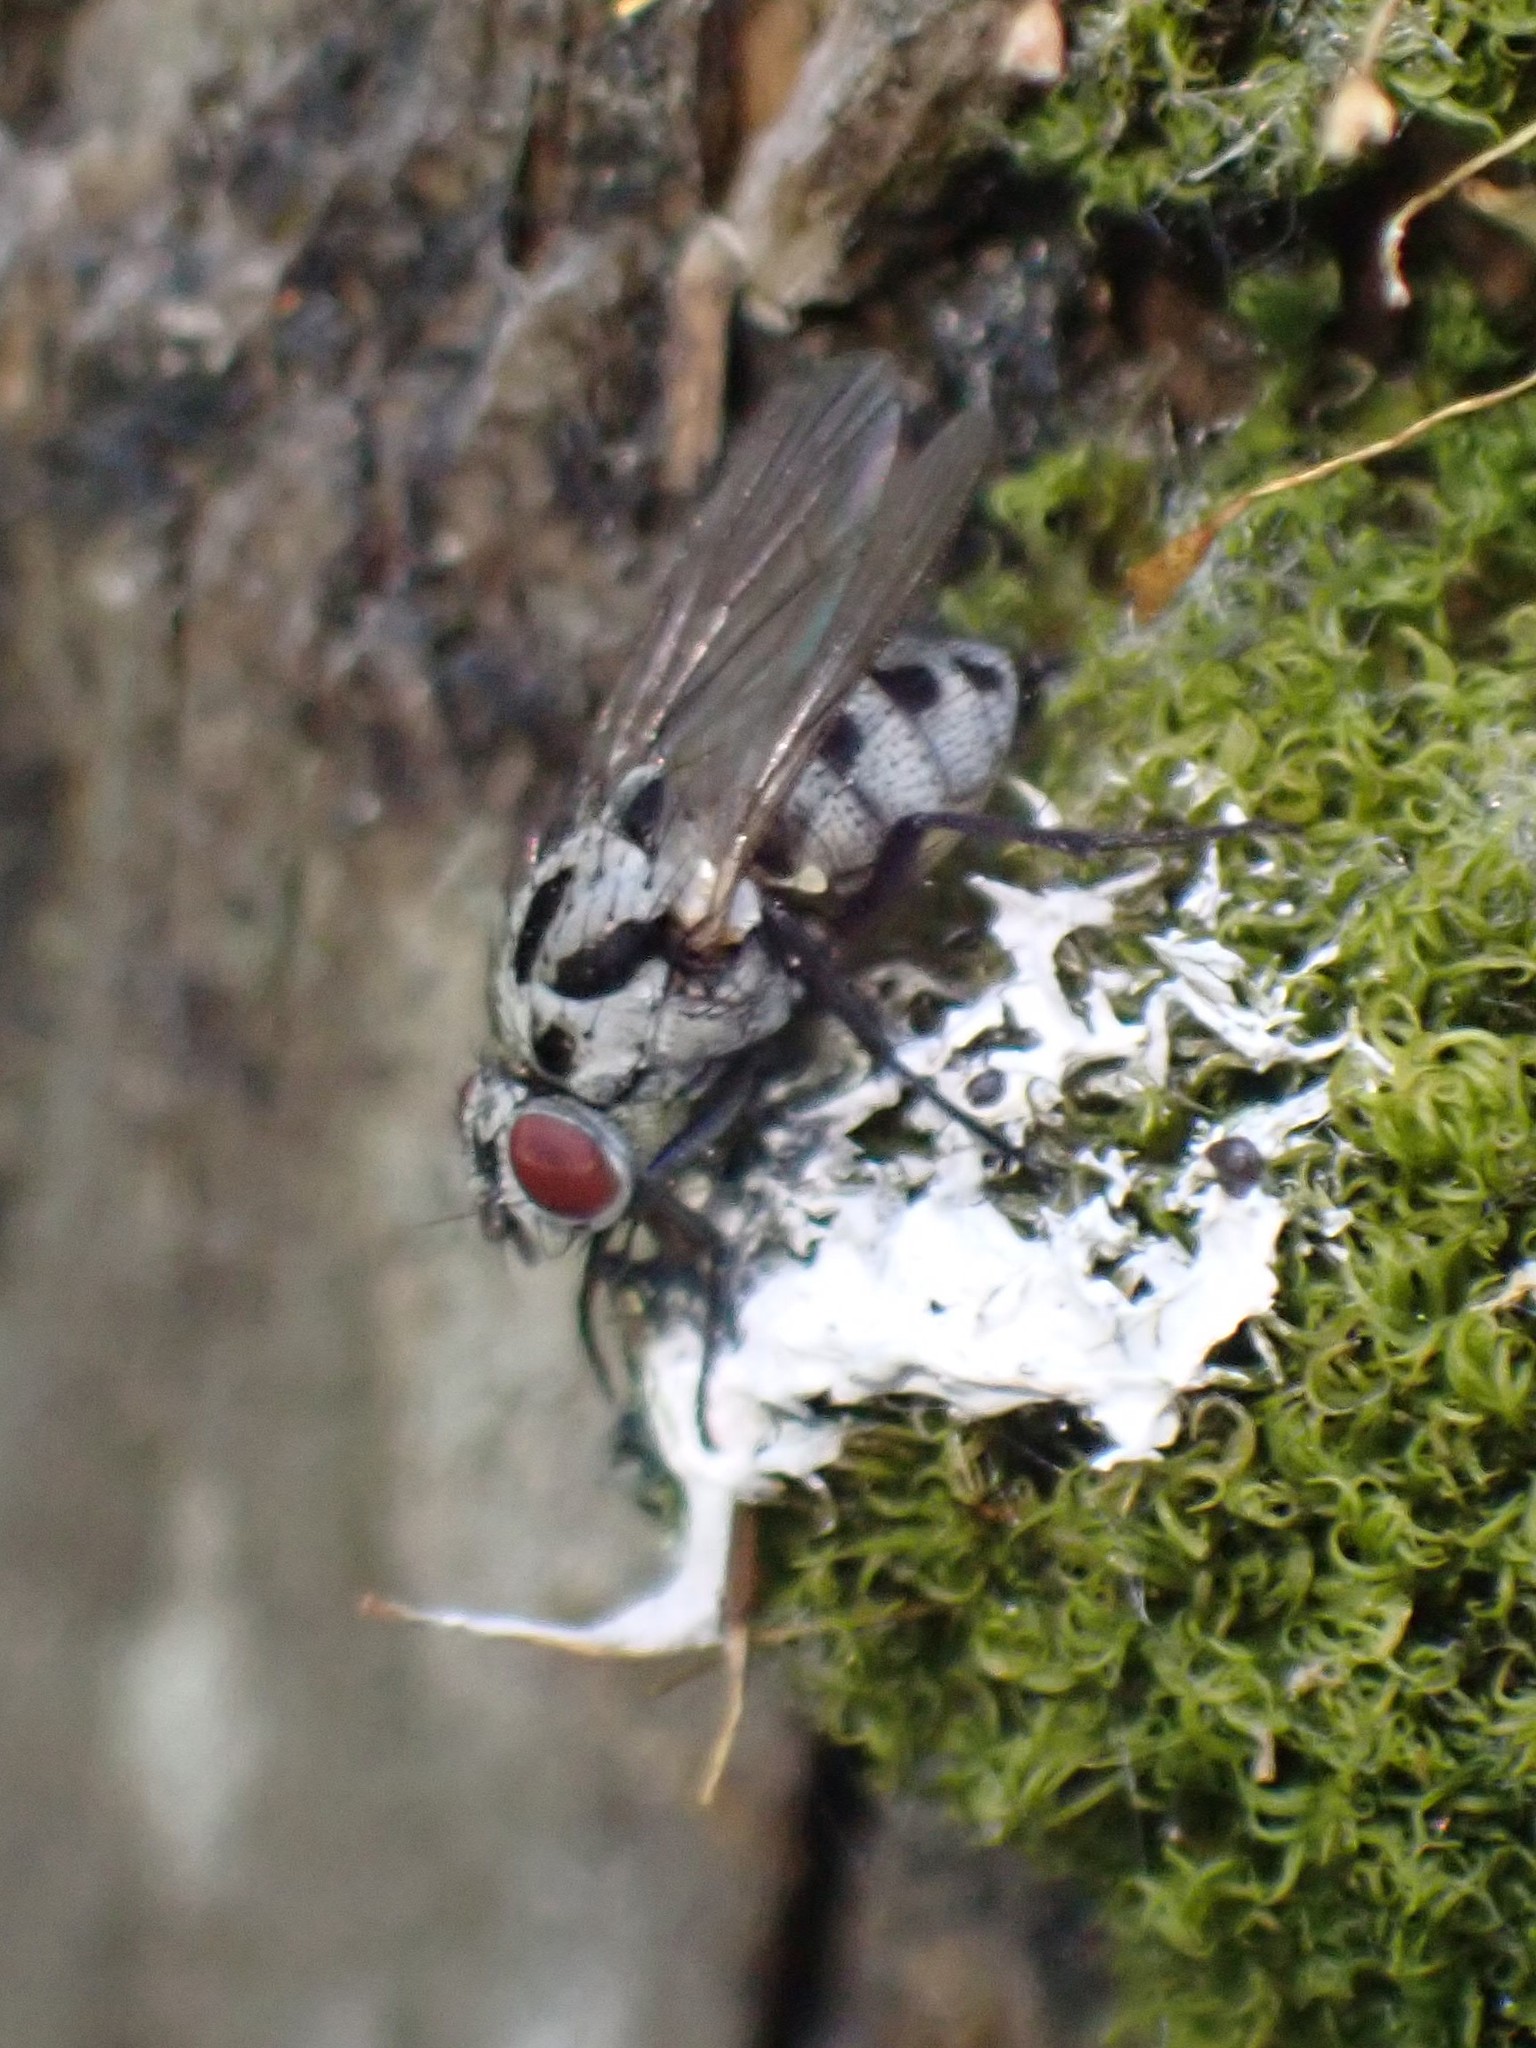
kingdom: Animalia
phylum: Arthropoda
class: Insecta
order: Diptera
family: Anthomyiidae
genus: Anthomyia
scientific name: Anthomyia procellaris
